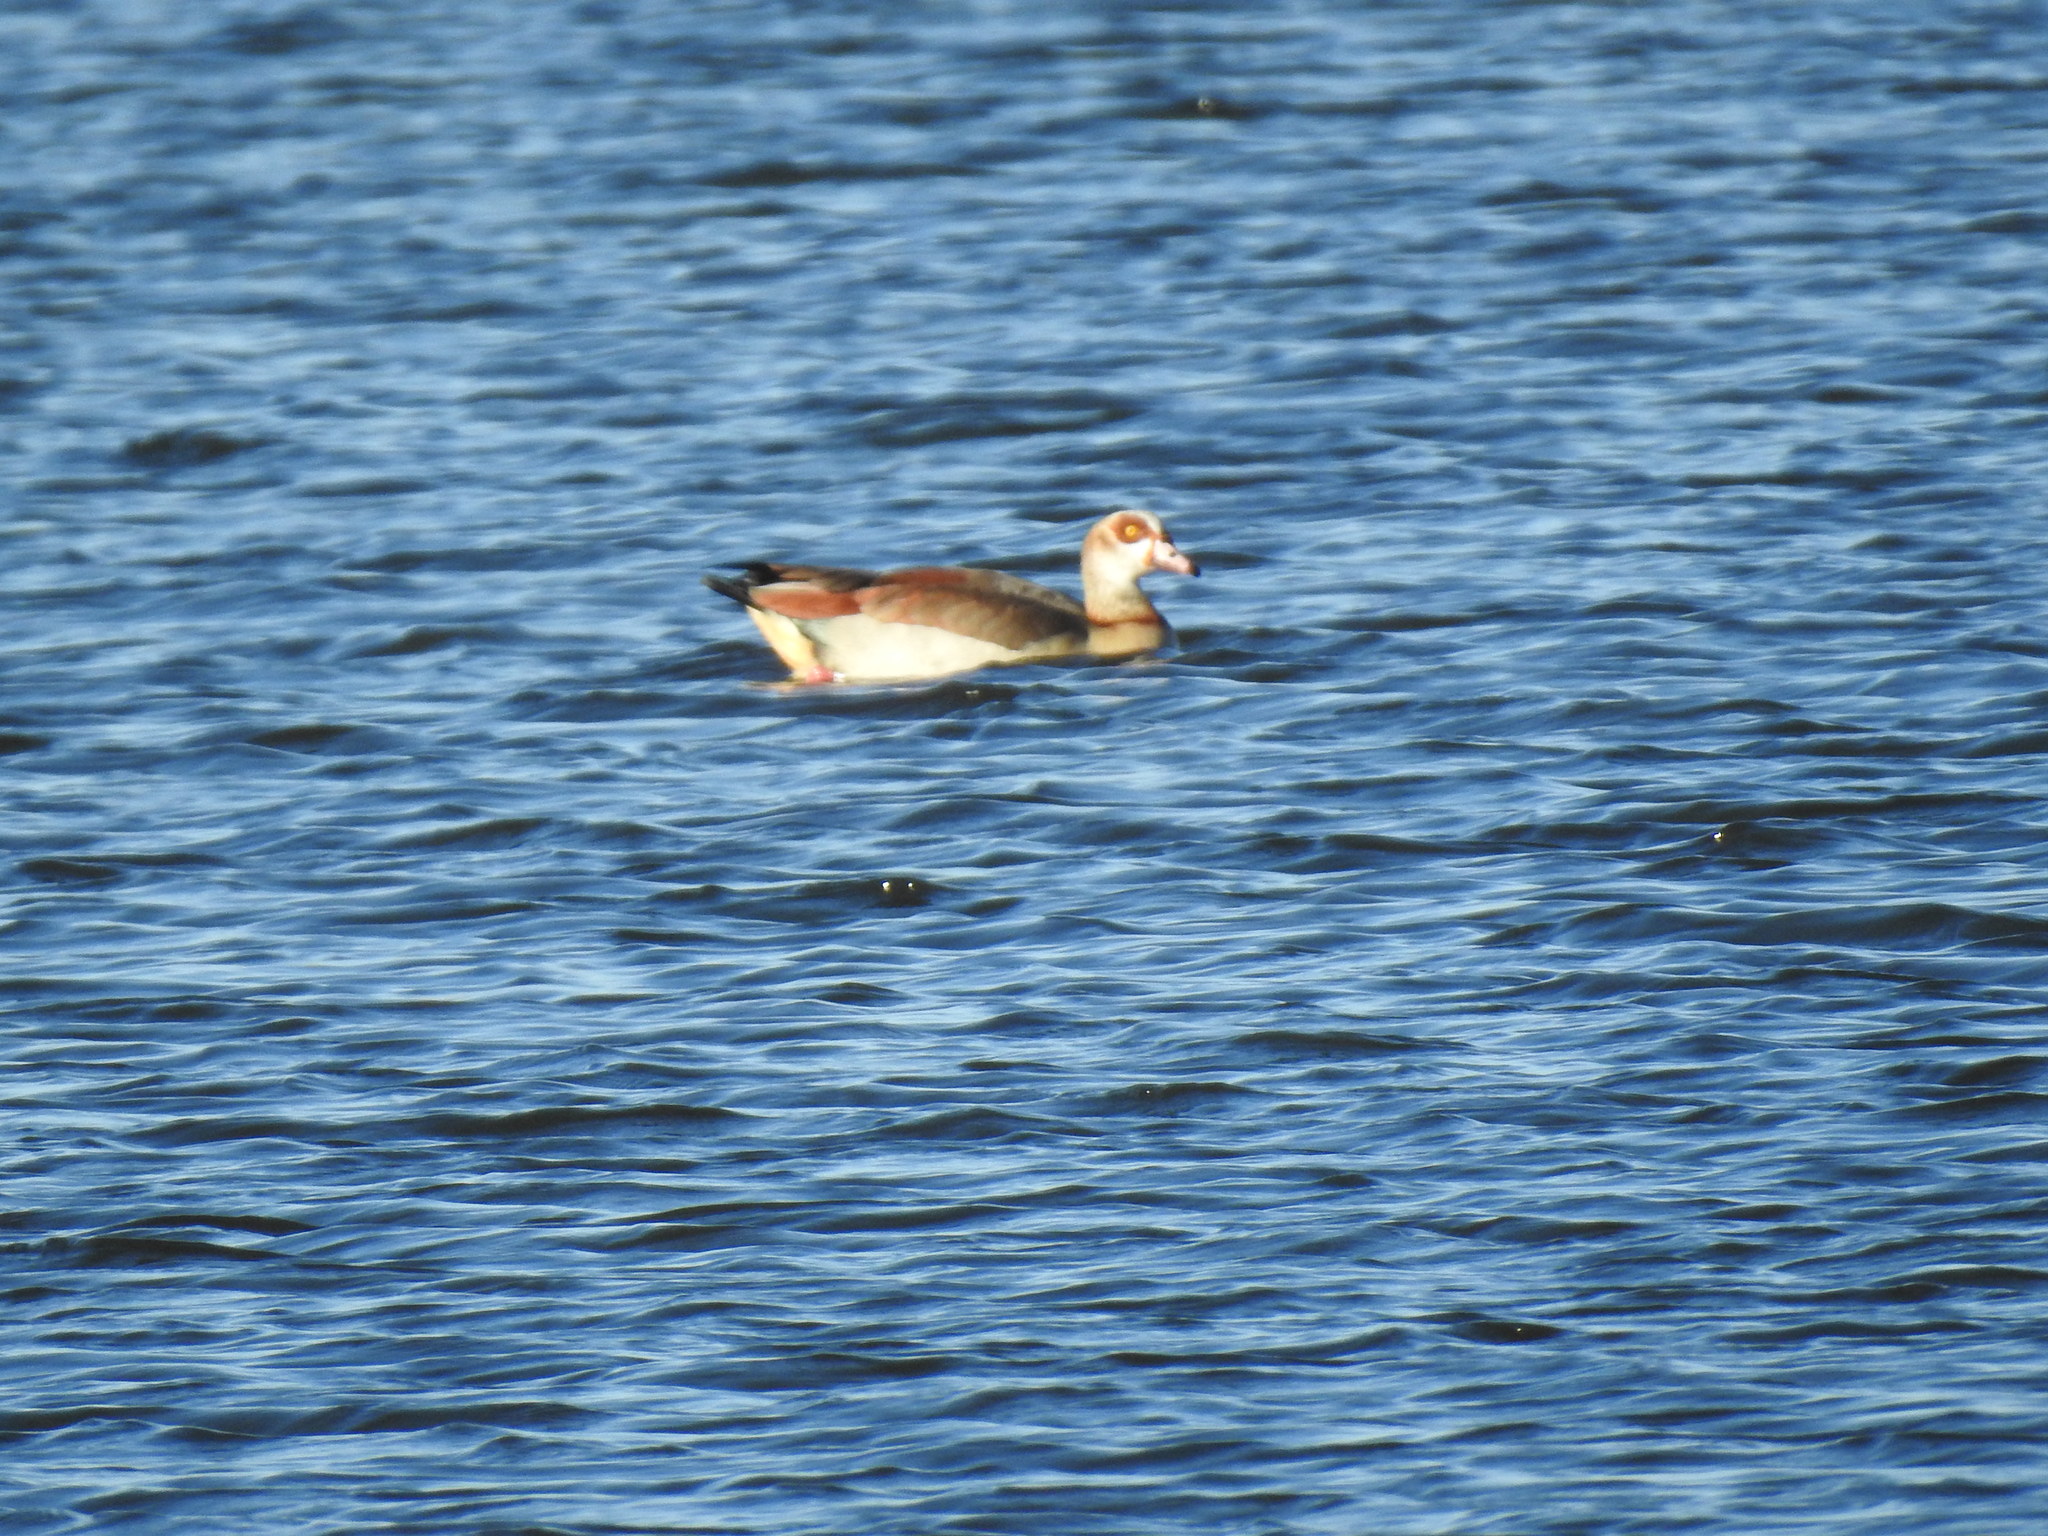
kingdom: Animalia
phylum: Chordata
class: Aves
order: Anseriformes
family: Anatidae
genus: Alopochen
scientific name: Alopochen aegyptiaca
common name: Egyptian goose
